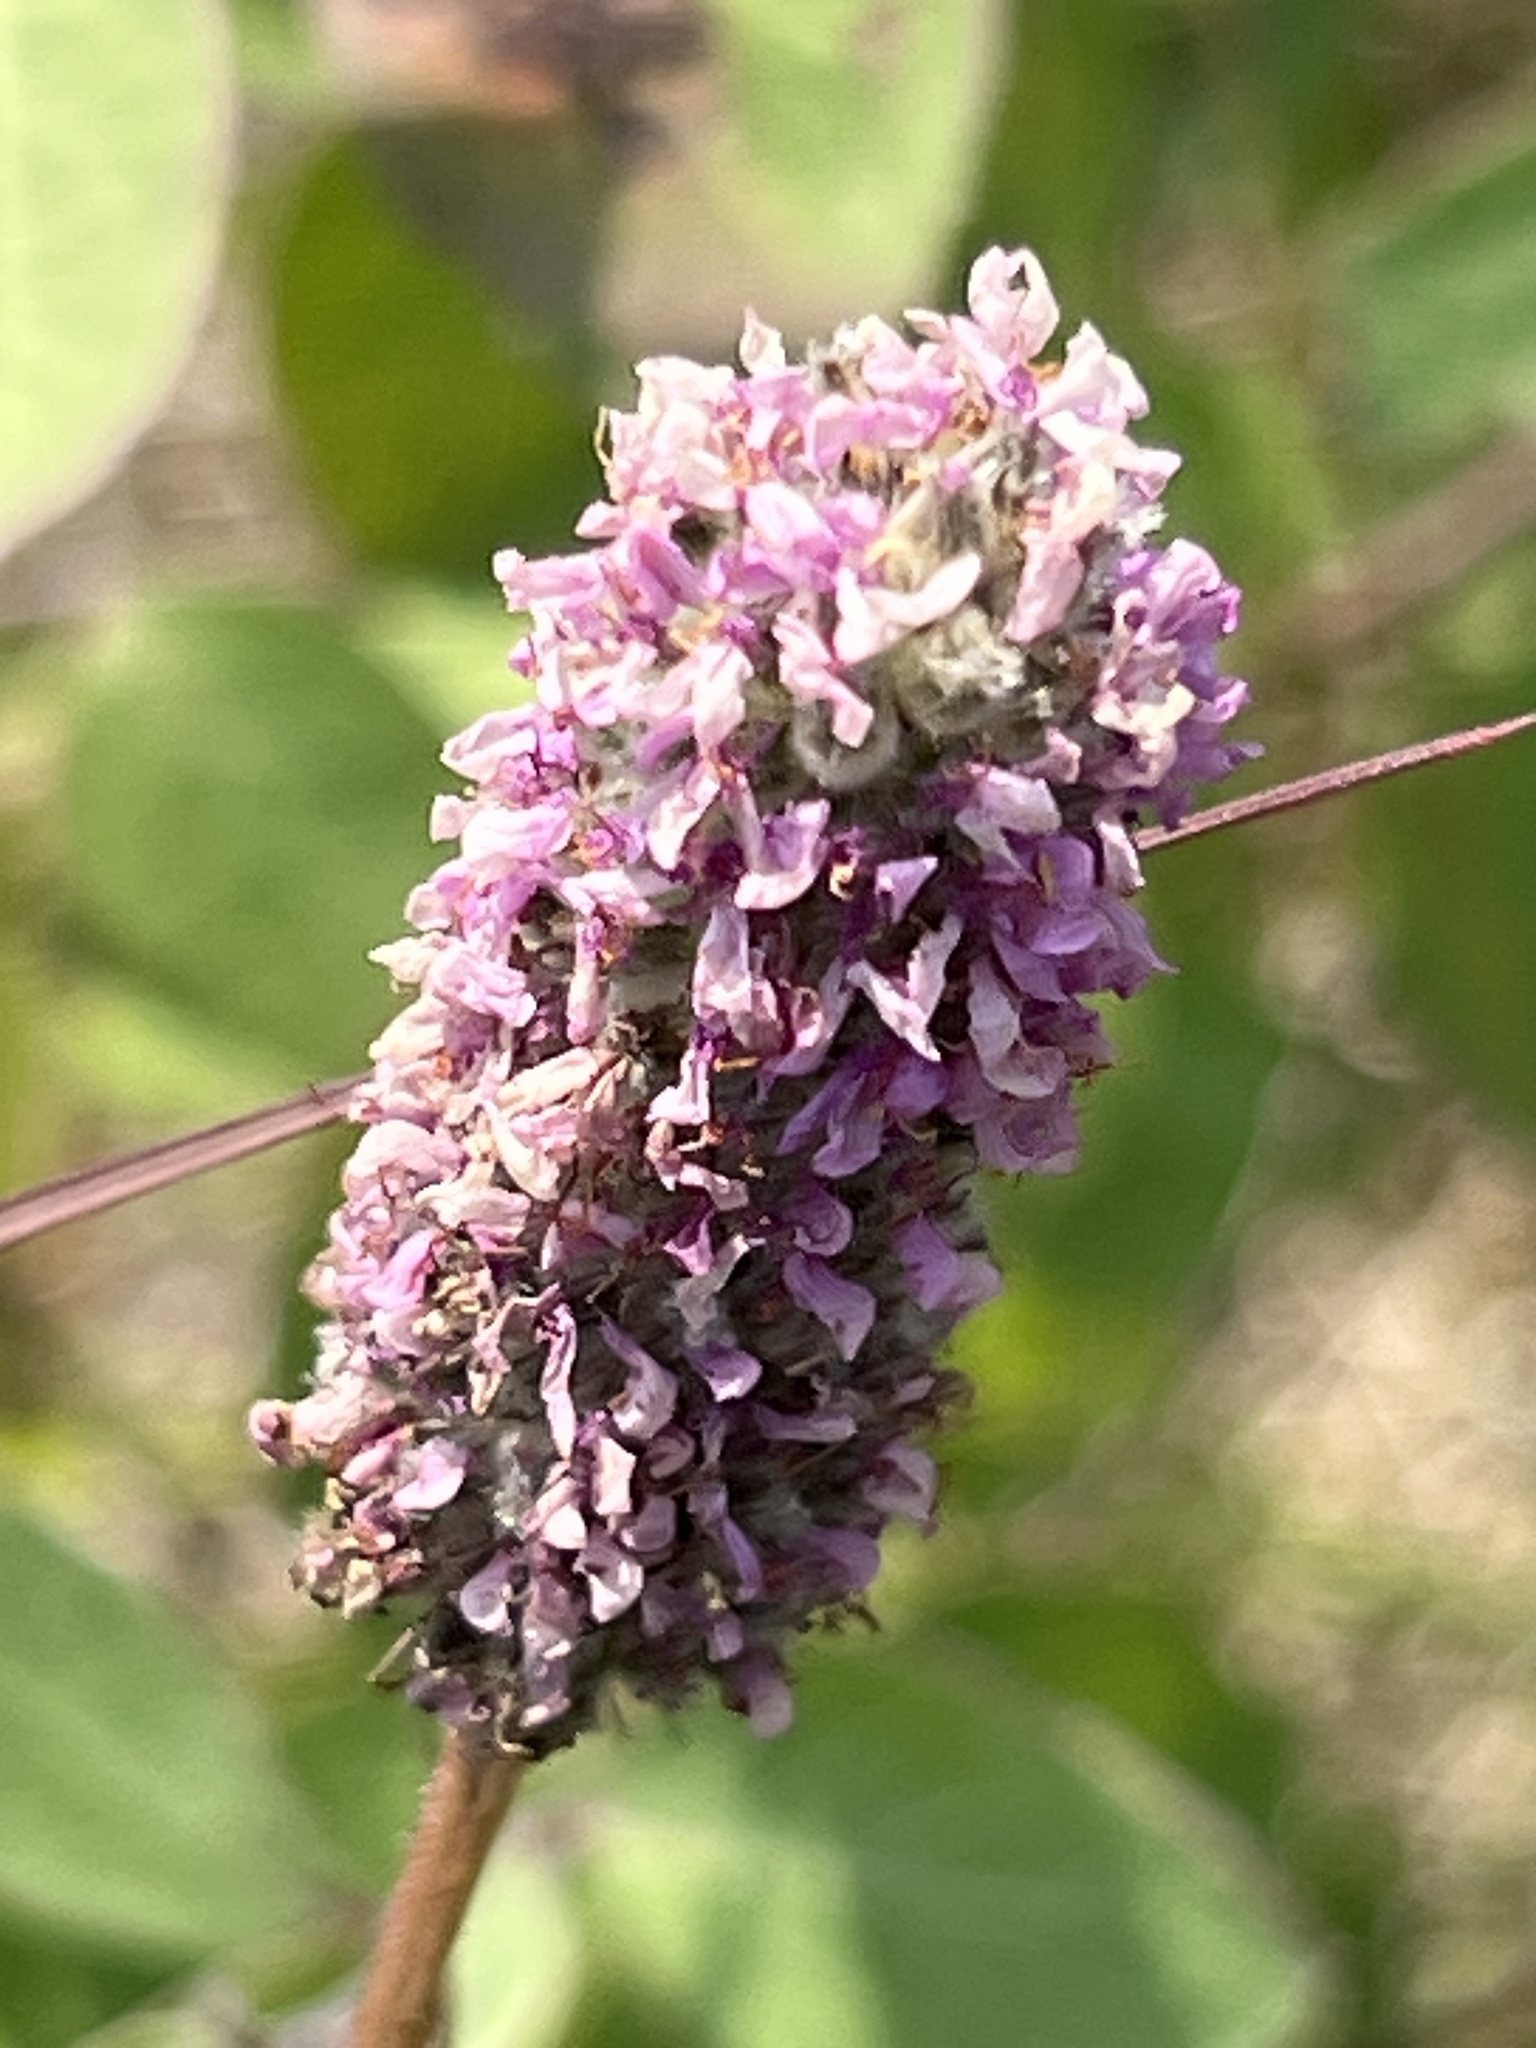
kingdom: Plantae
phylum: Tracheophyta
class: Magnoliopsida
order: Fabales
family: Fabaceae
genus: Dalea
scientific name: Dalea purpurea
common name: Purple prairie-clover
